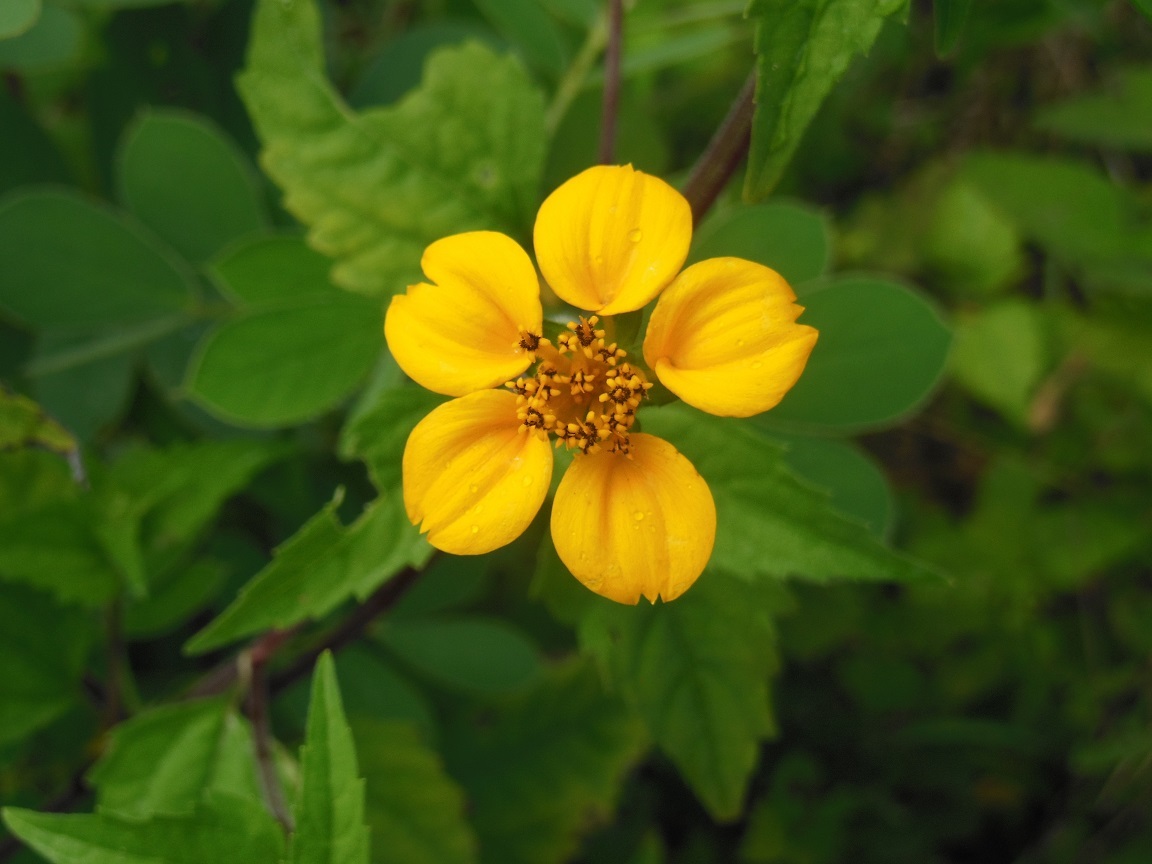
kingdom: Plantae
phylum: Tracheophyta
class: Magnoliopsida
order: Asterales
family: Asteraceae
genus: Sclerocarpus
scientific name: Sclerocarpus divaricatus
